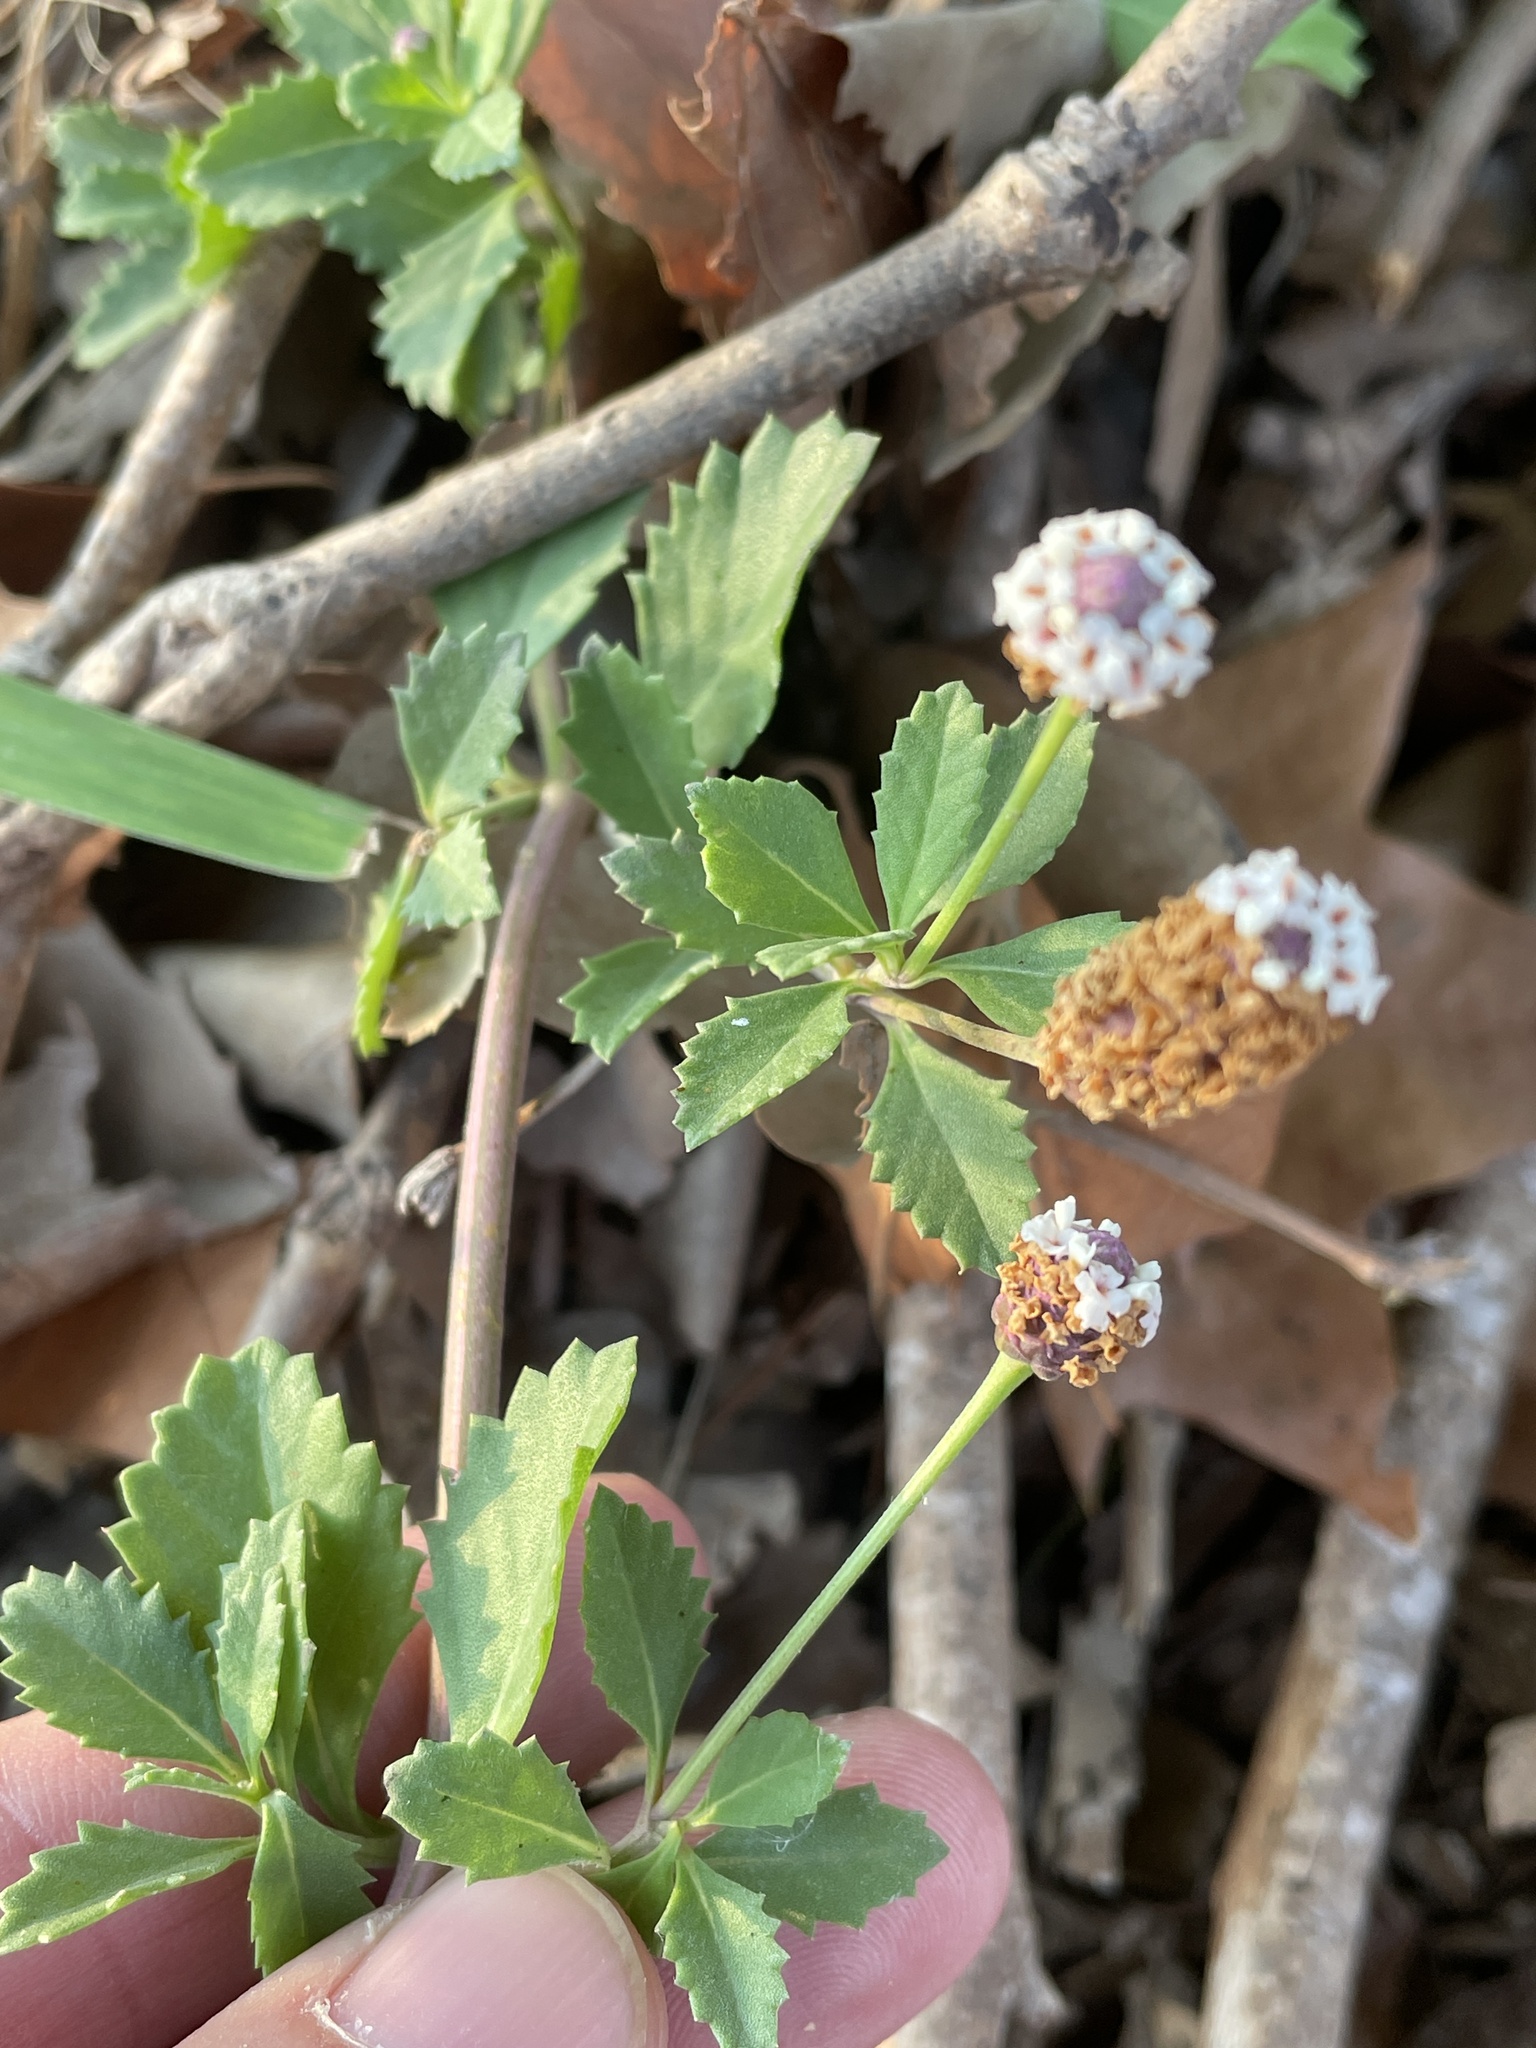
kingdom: Plantae
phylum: Tracheophyta
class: Magnoliopsida
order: Lamiales
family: Verbenaceae
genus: Phyla
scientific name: Phyla nodiflora
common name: Frogfruit
